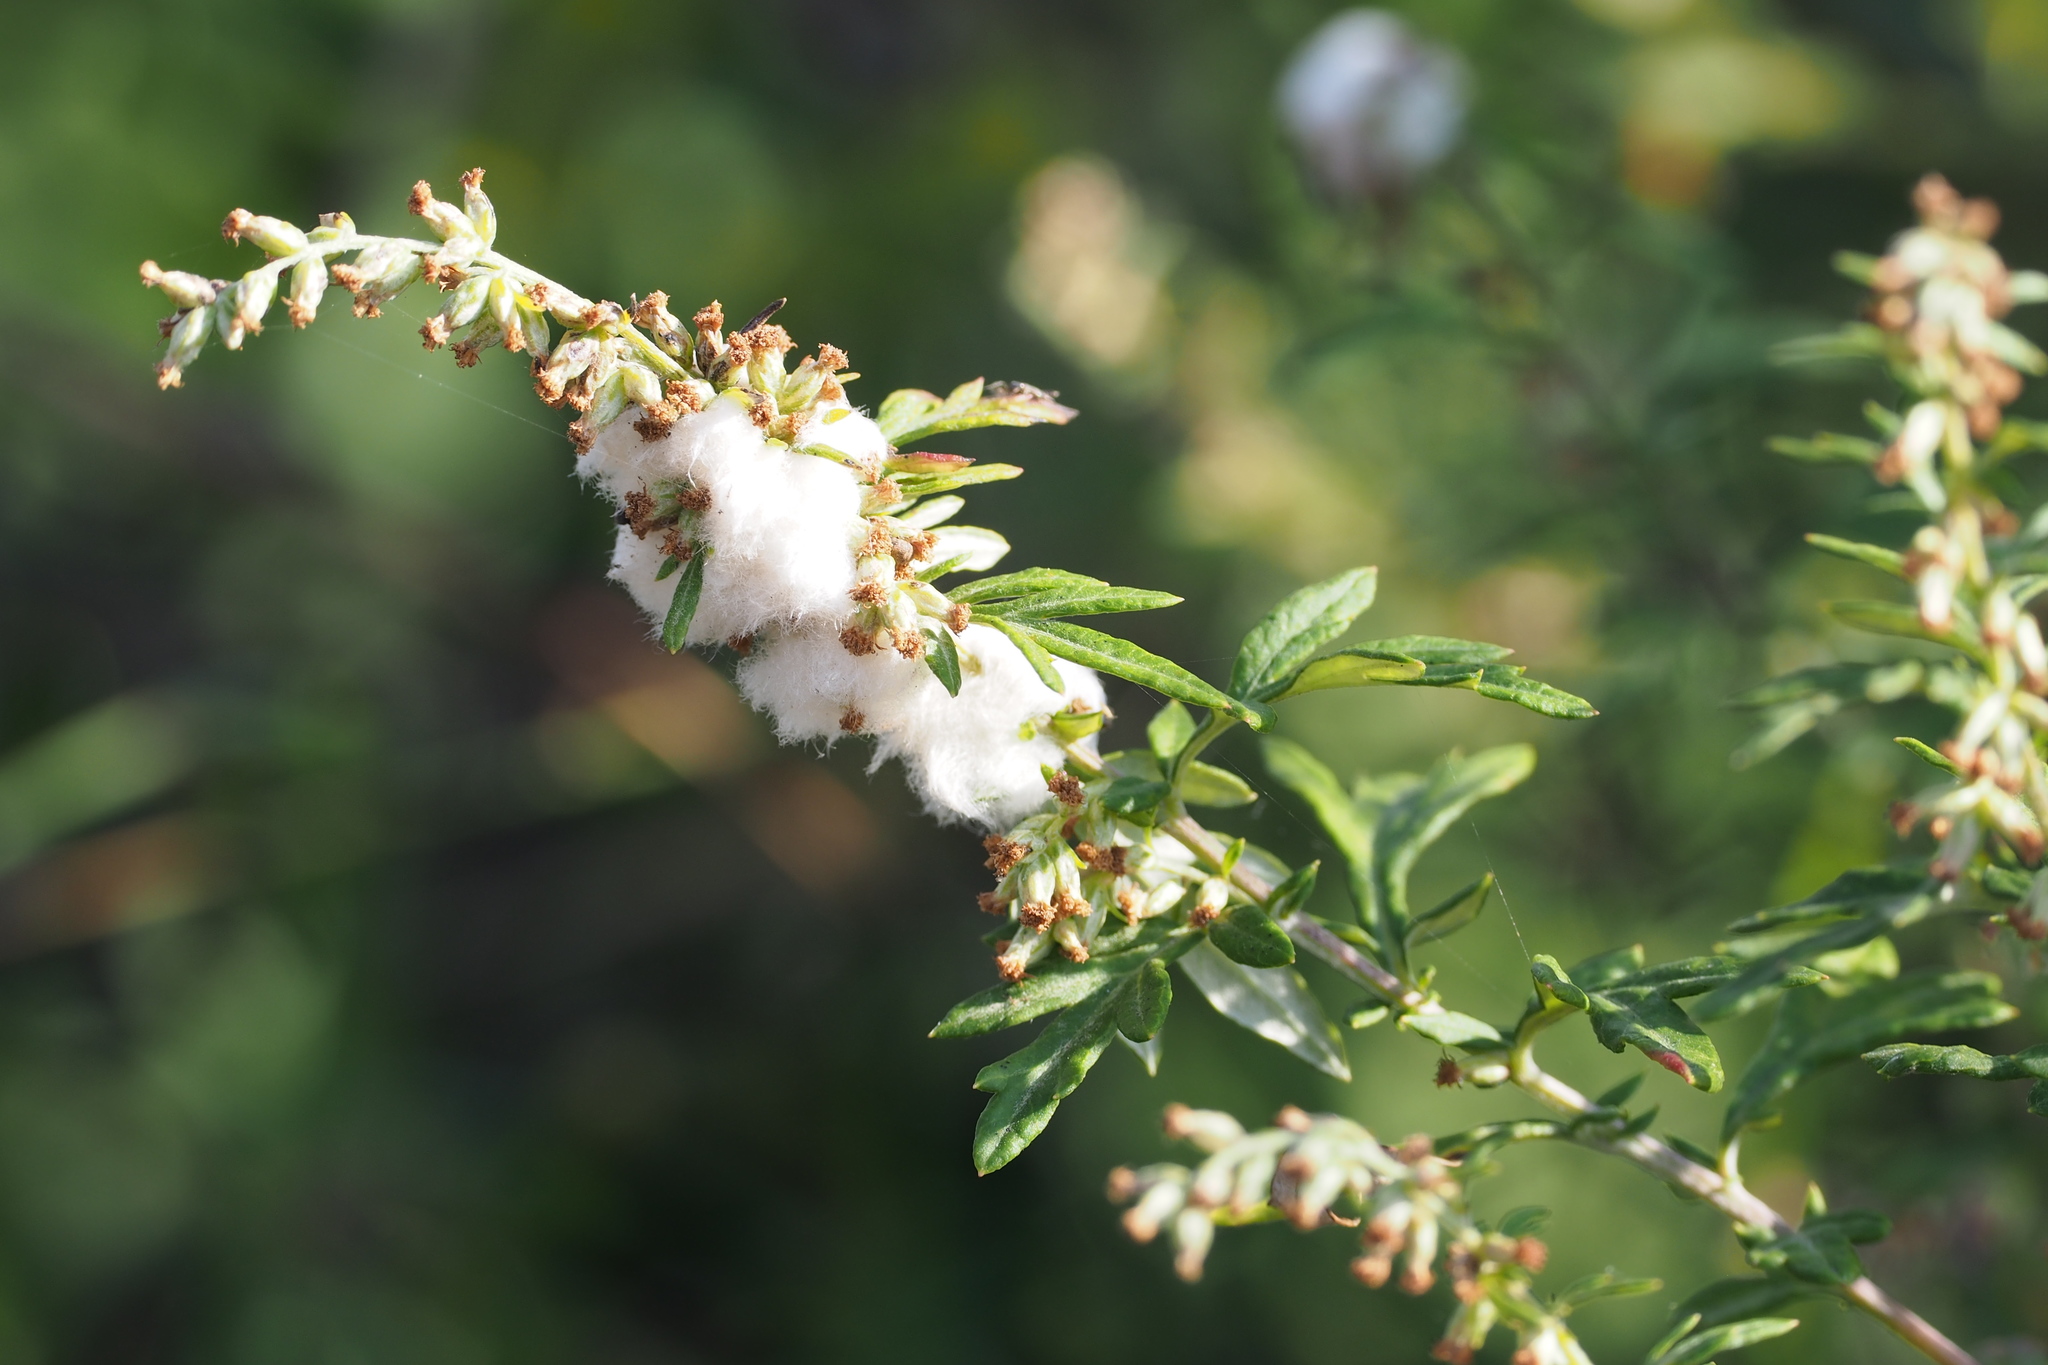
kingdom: Animalia
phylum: Arthropoda
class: Insecta
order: Diptera
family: Cecidomyiidae
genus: Rhopalomyia
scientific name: Rhopalomyia giraldii
